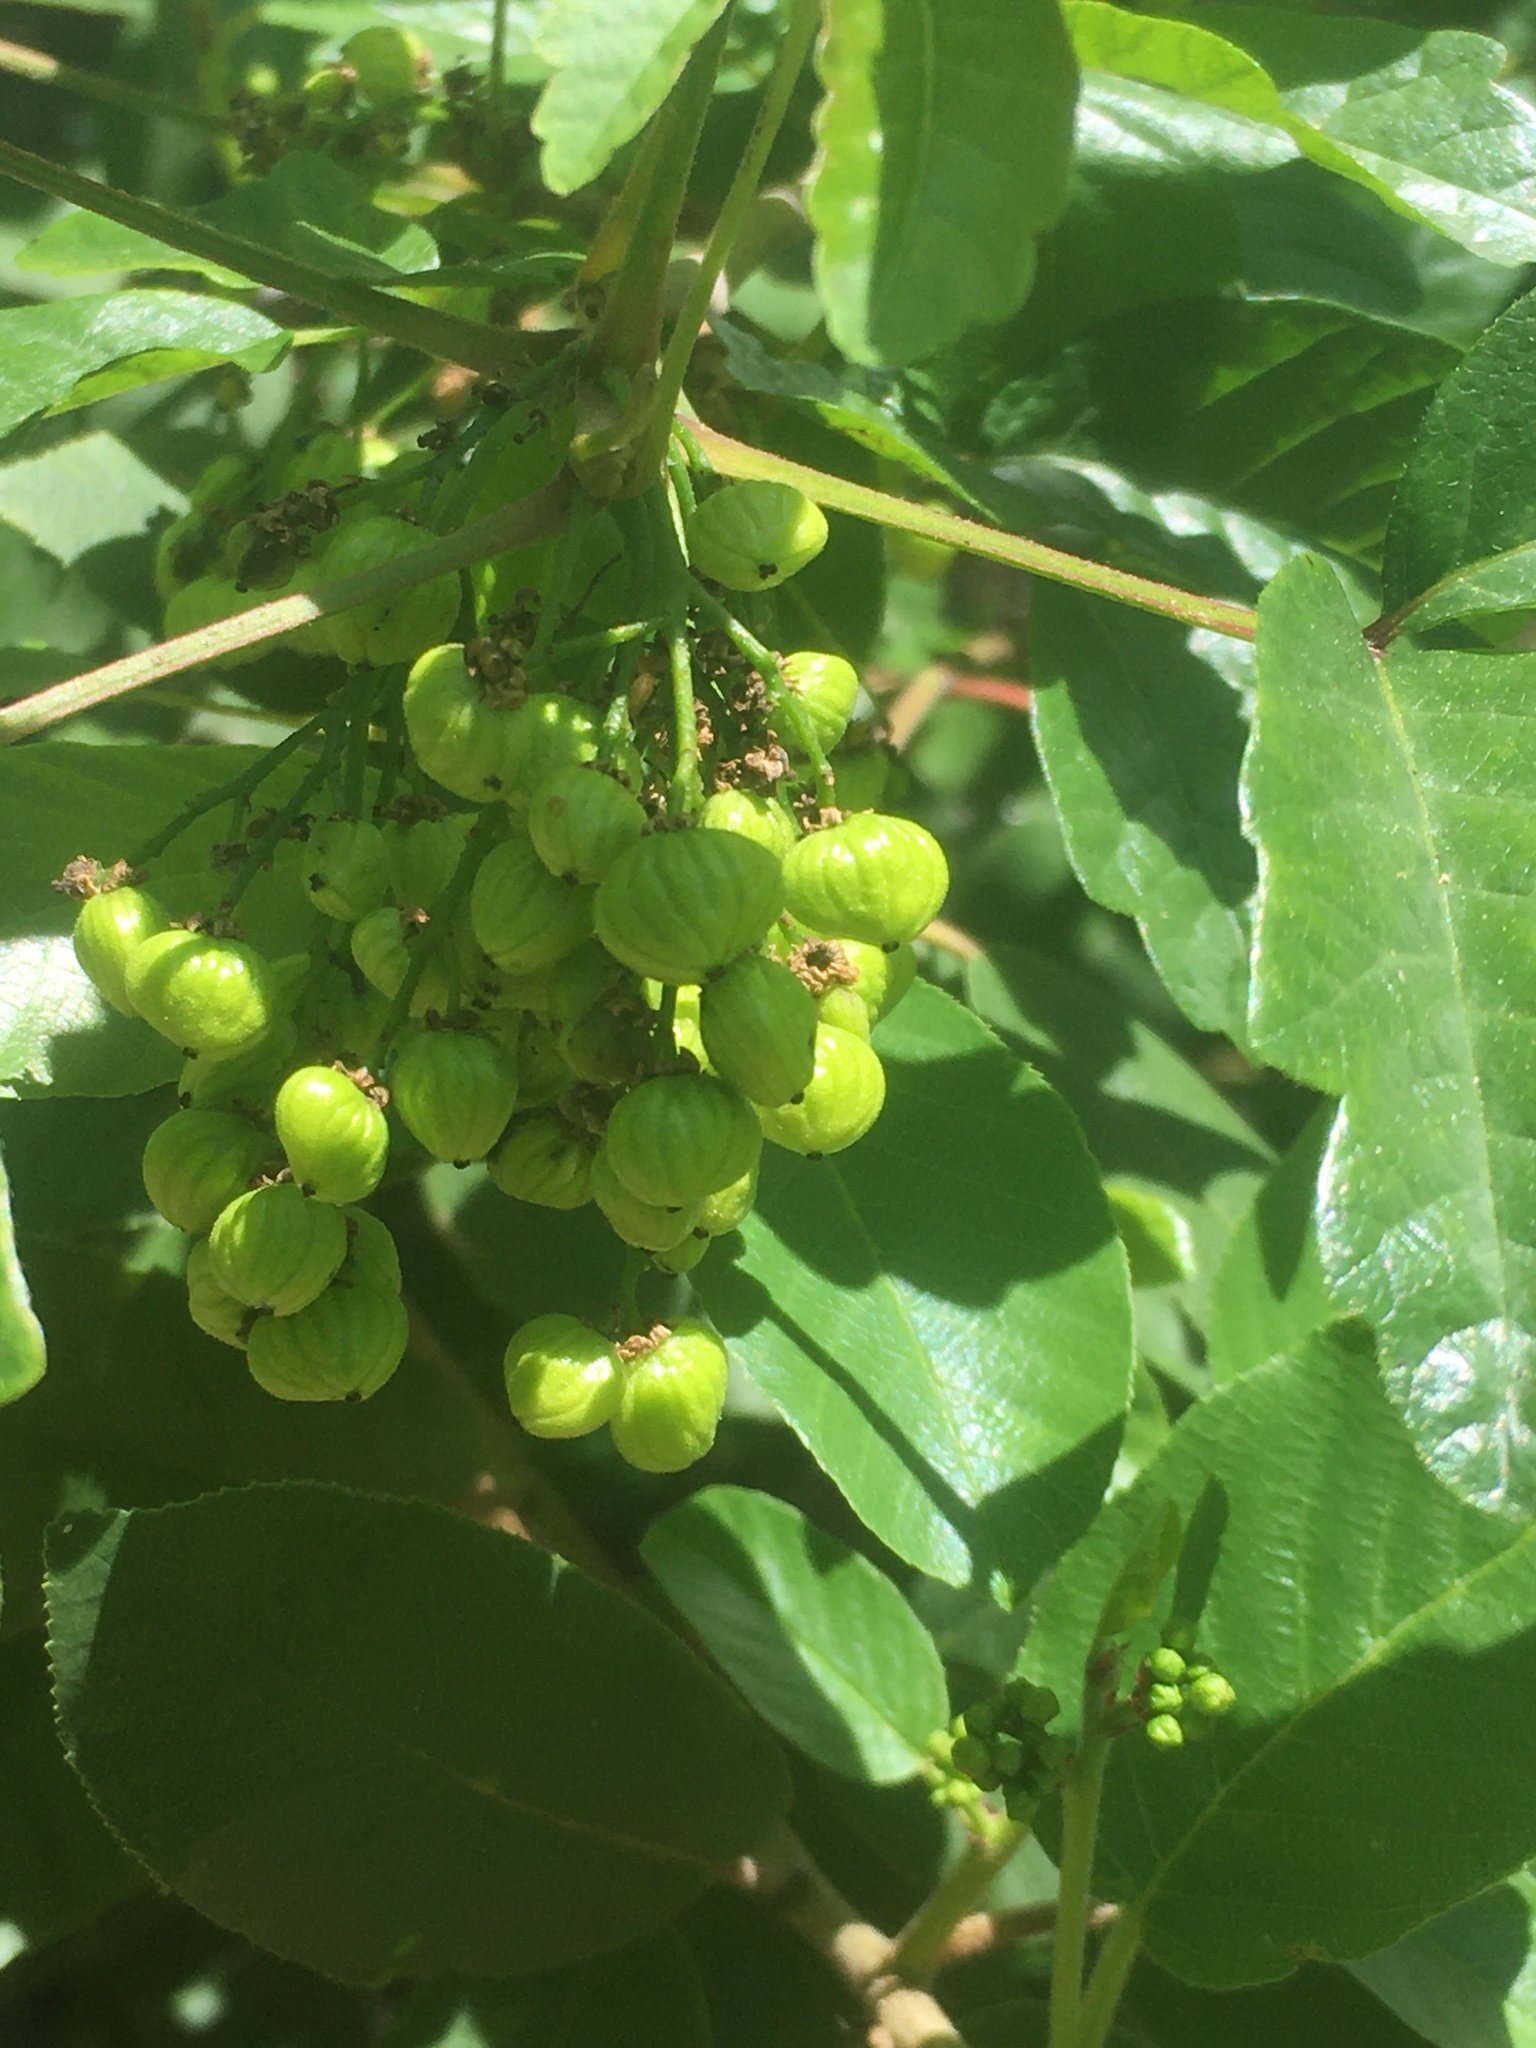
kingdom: Plantae
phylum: Tracheophyta
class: Magnoliopsida
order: Sapindales
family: Anacardiaceae
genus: Toxicodendron
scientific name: Toxicodendron diversilobum
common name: Pacific poison-oak
